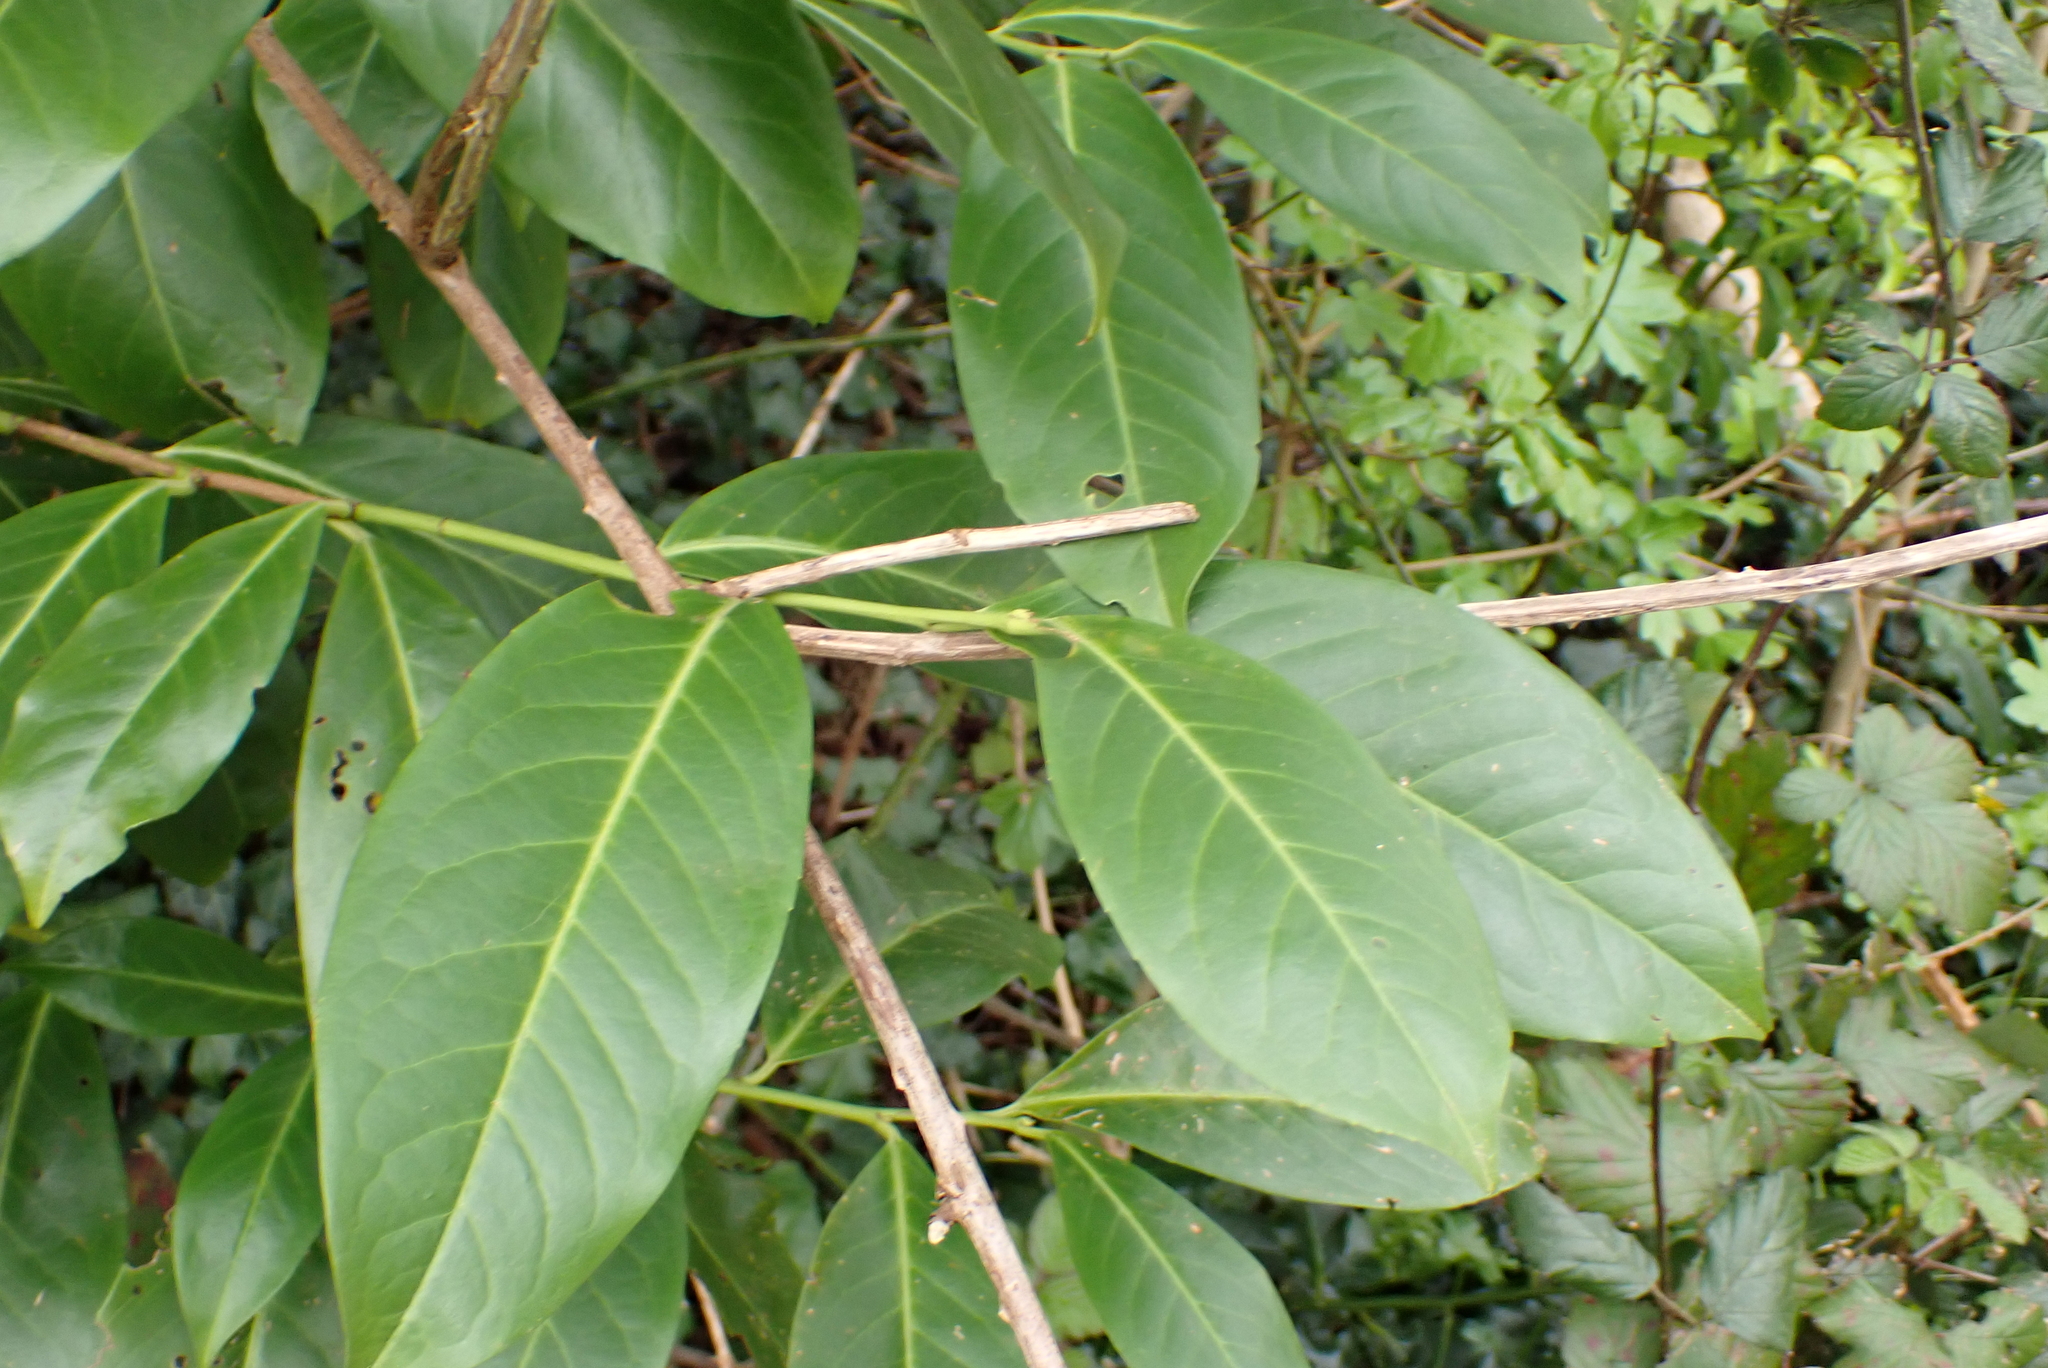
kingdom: Plantae
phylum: Tracheophyta
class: Magnoliopsida
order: Rosales
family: Rosaceae
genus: Prunus
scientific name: Prunus laurocerasus
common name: Cherry laurel
